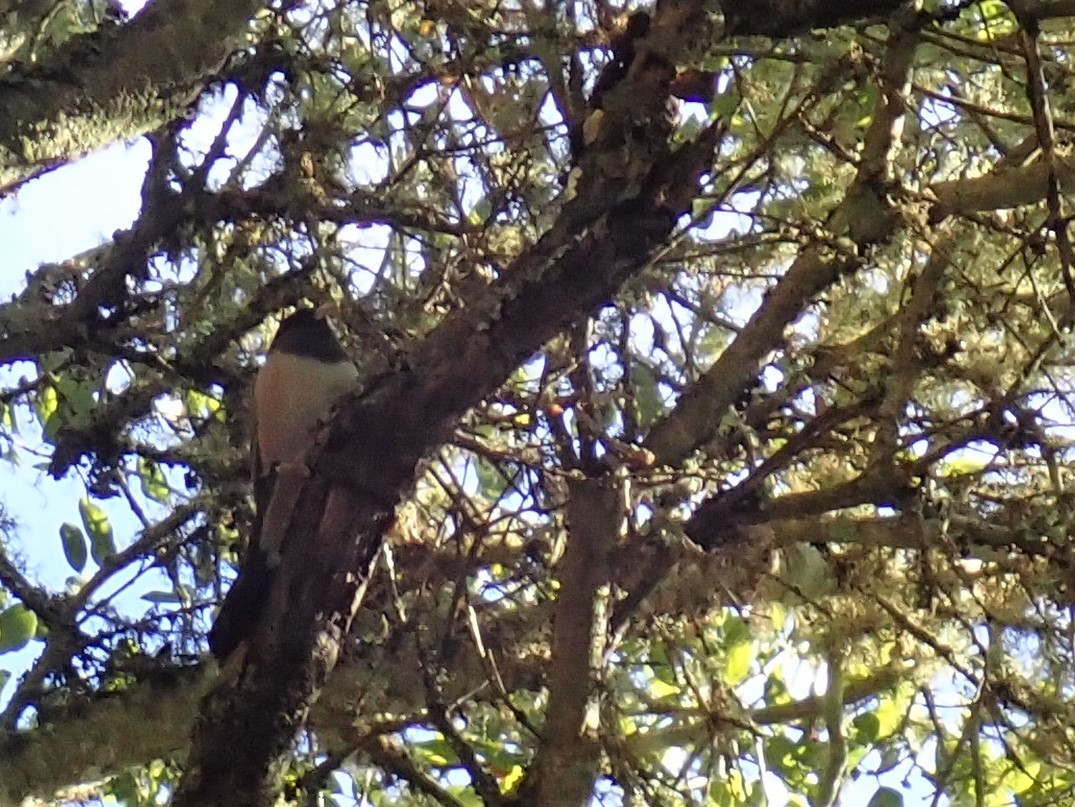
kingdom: Animalia
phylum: Chordata
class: Aves
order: Passeriformes
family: Passerellidae
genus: Junco
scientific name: Junco hyemalis
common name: Dark-eyed junco
